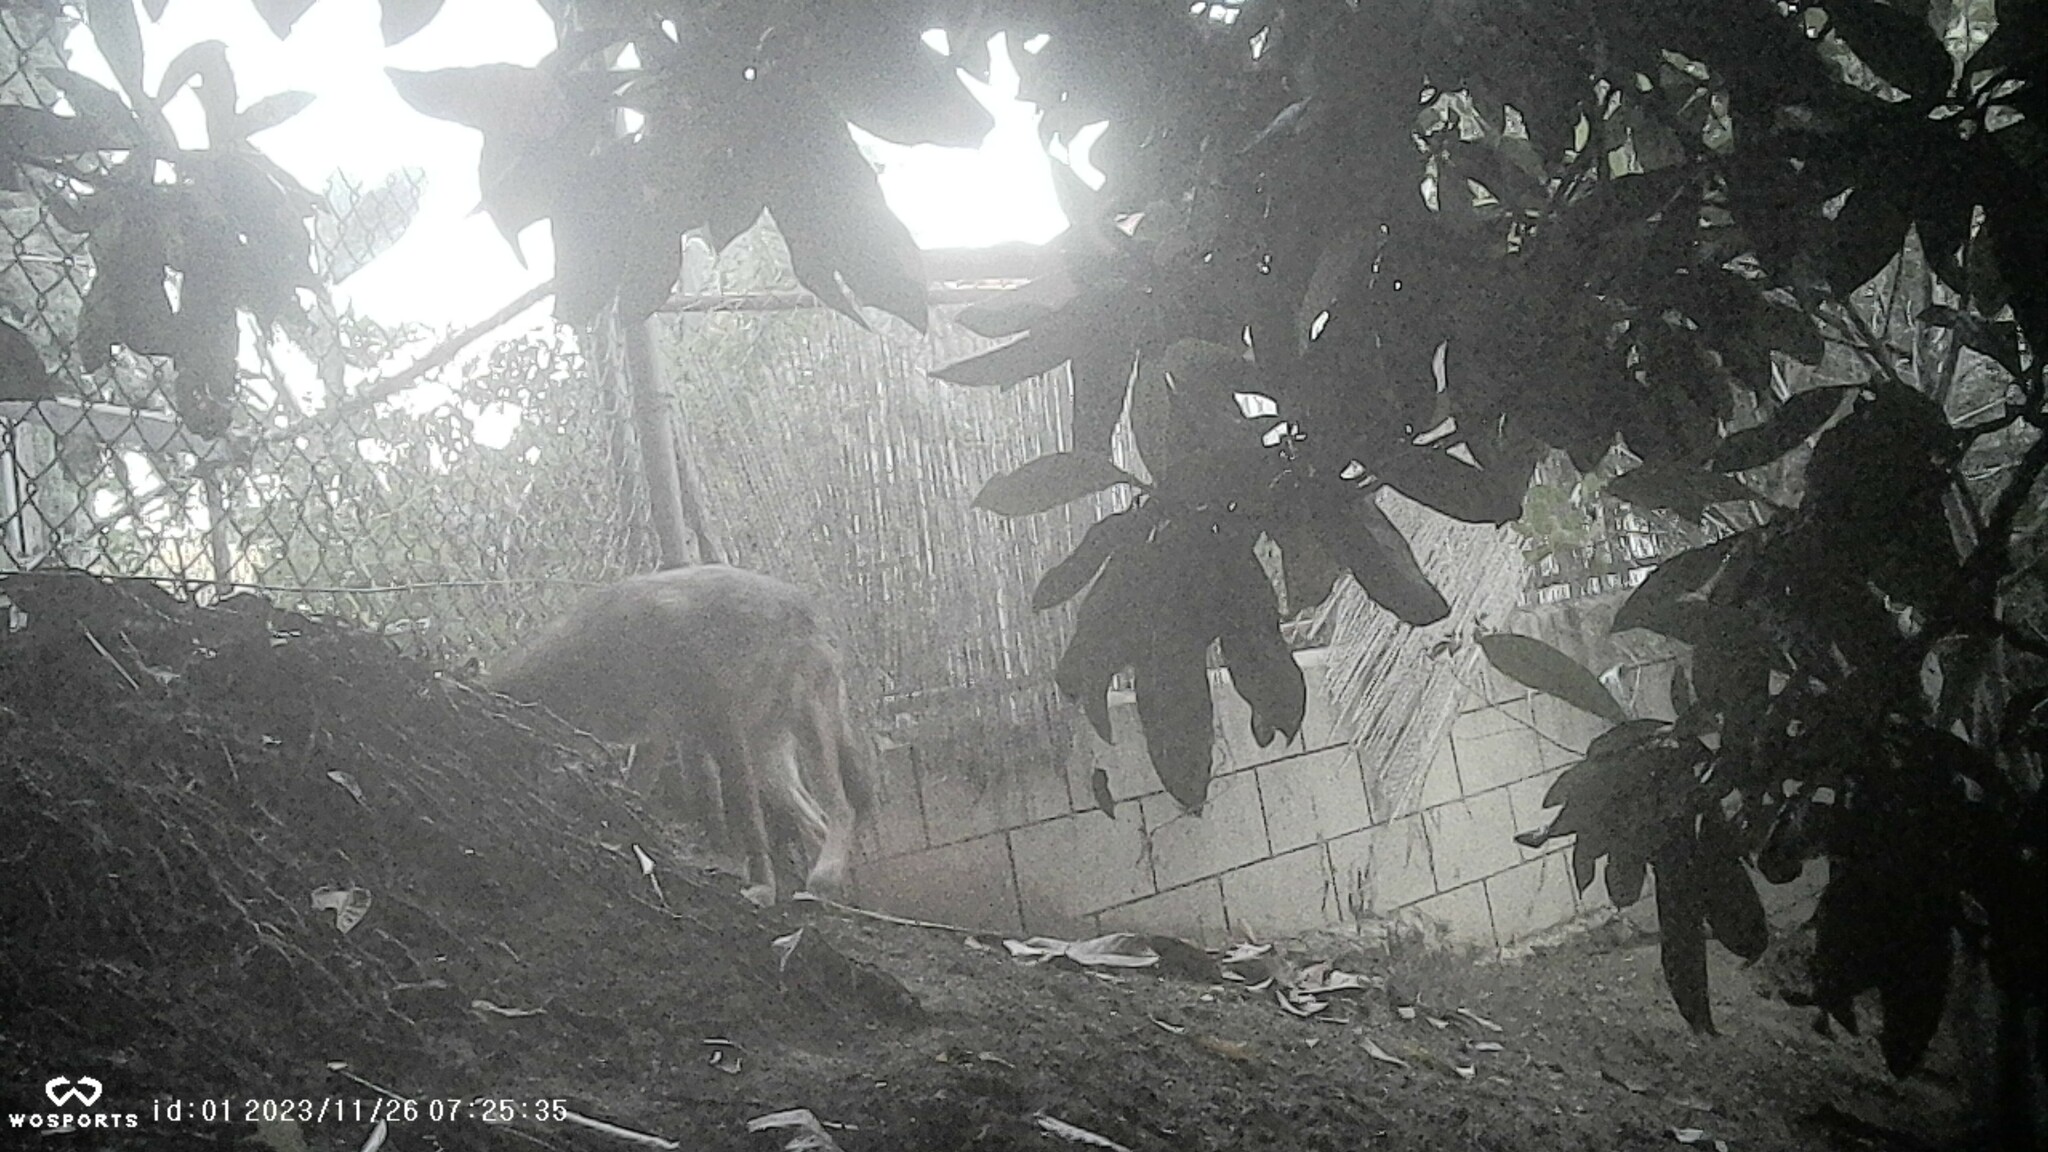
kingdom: Animalia
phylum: Chordata
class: Mammalia
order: Carnivora
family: Canidae
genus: Canis
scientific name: Canis latrans
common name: Coyote
